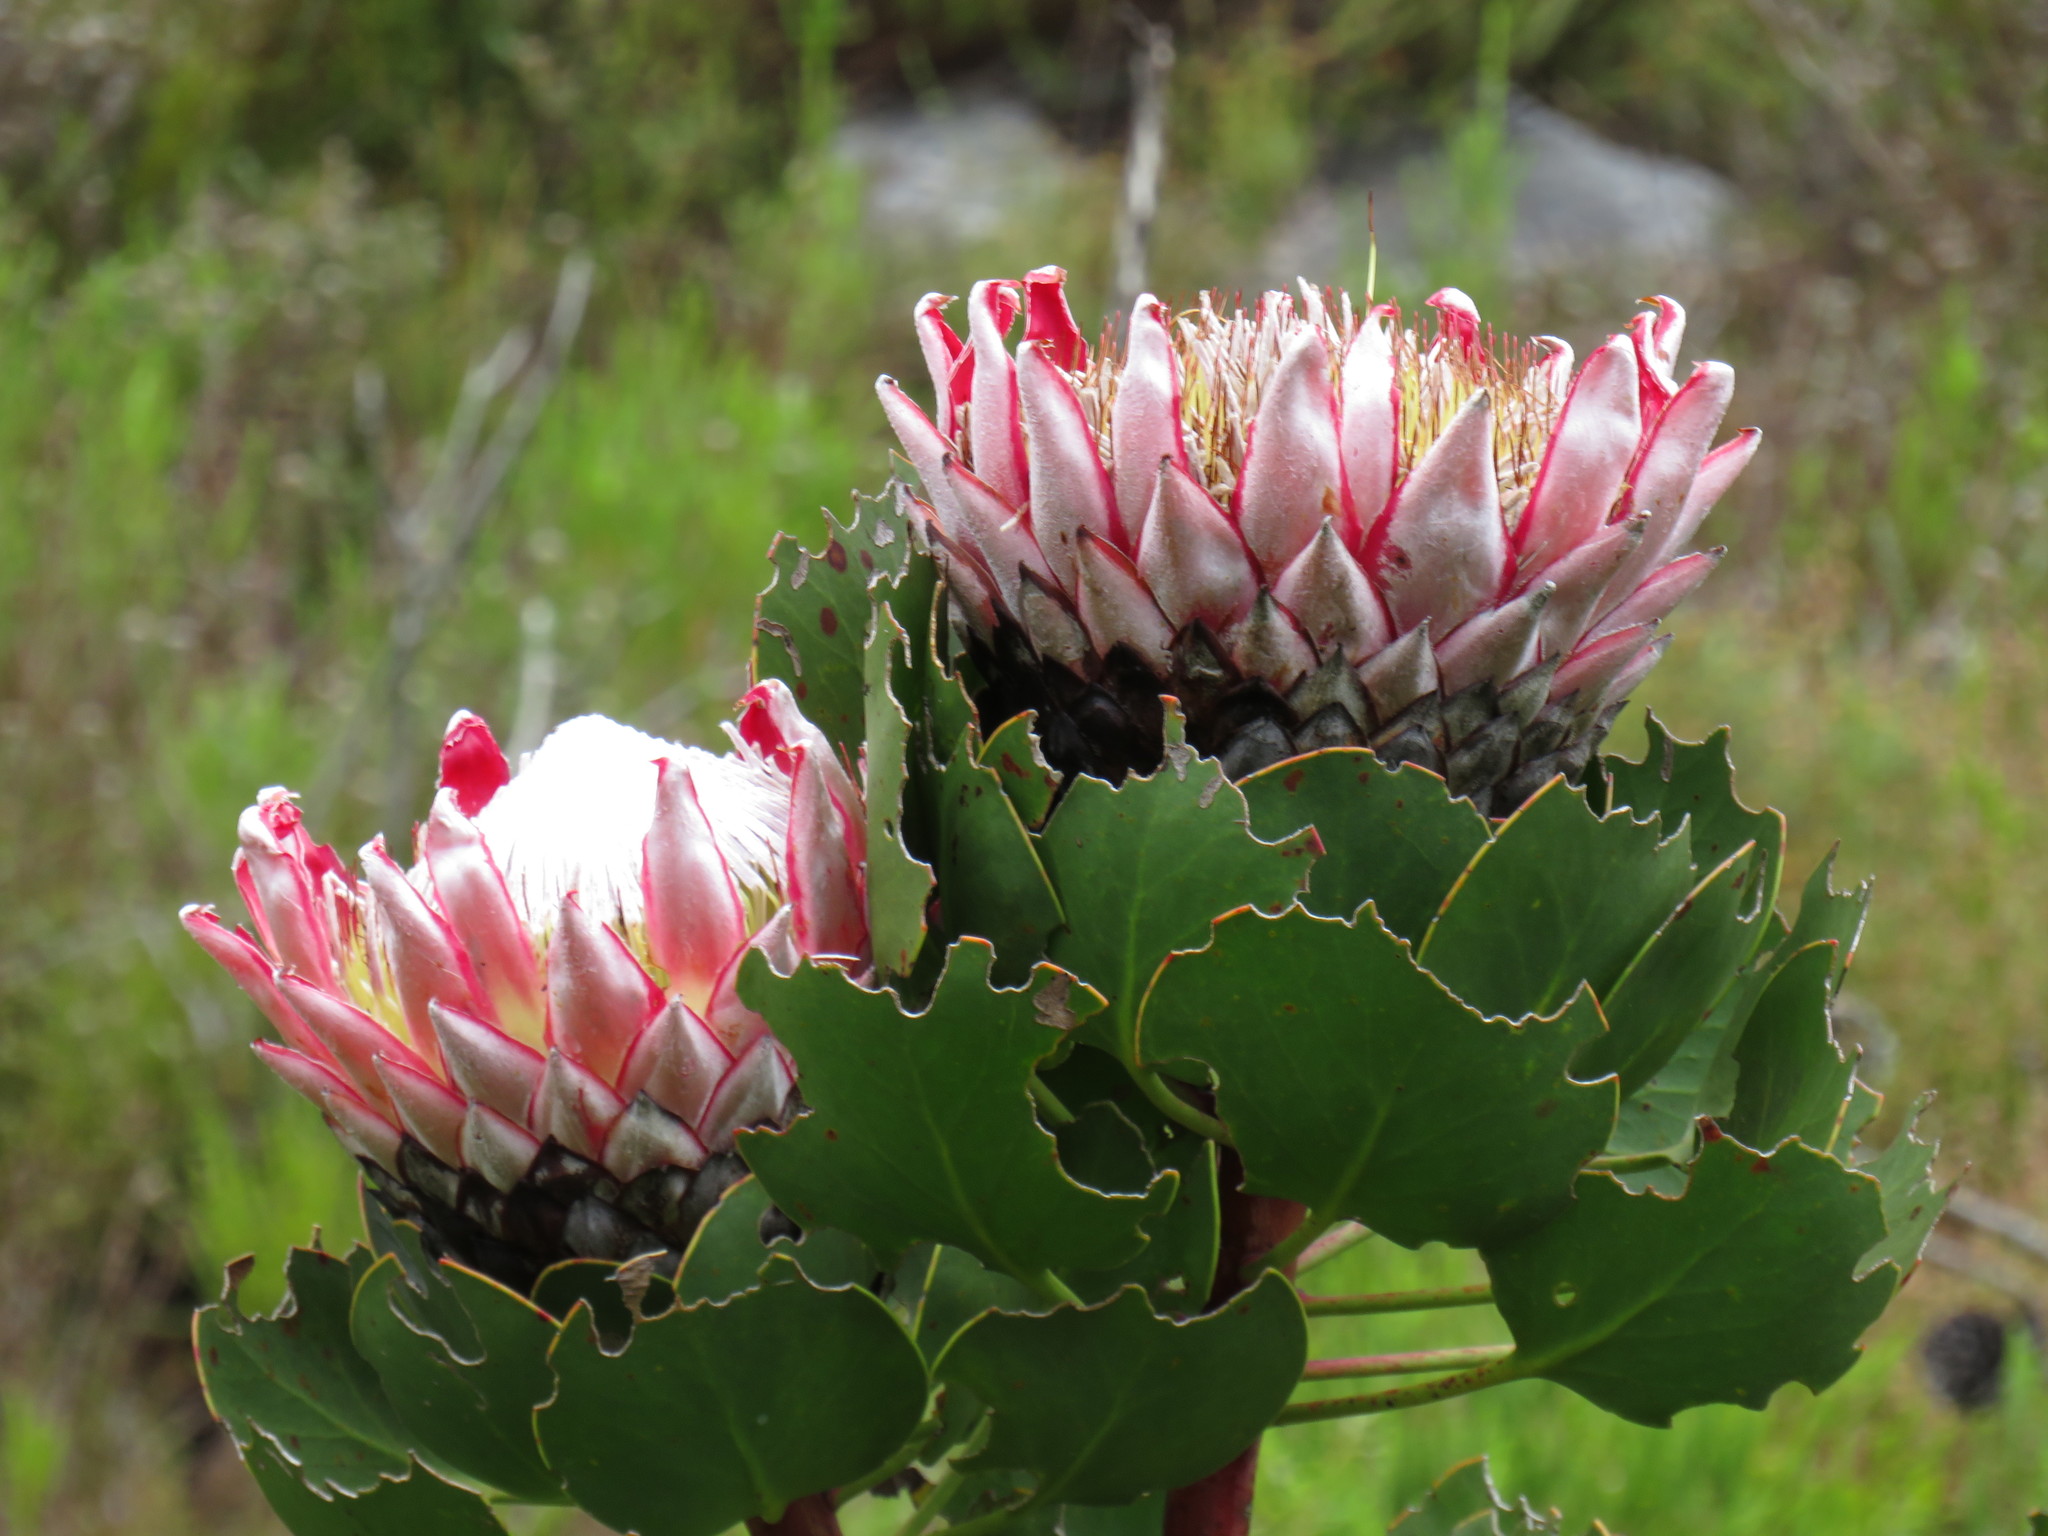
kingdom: Plantae
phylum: Tracheophyta
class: Magnoliopsida
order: Proteales
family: Proteaceae
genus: Protea
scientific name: Protea cynaroides
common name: King protea
